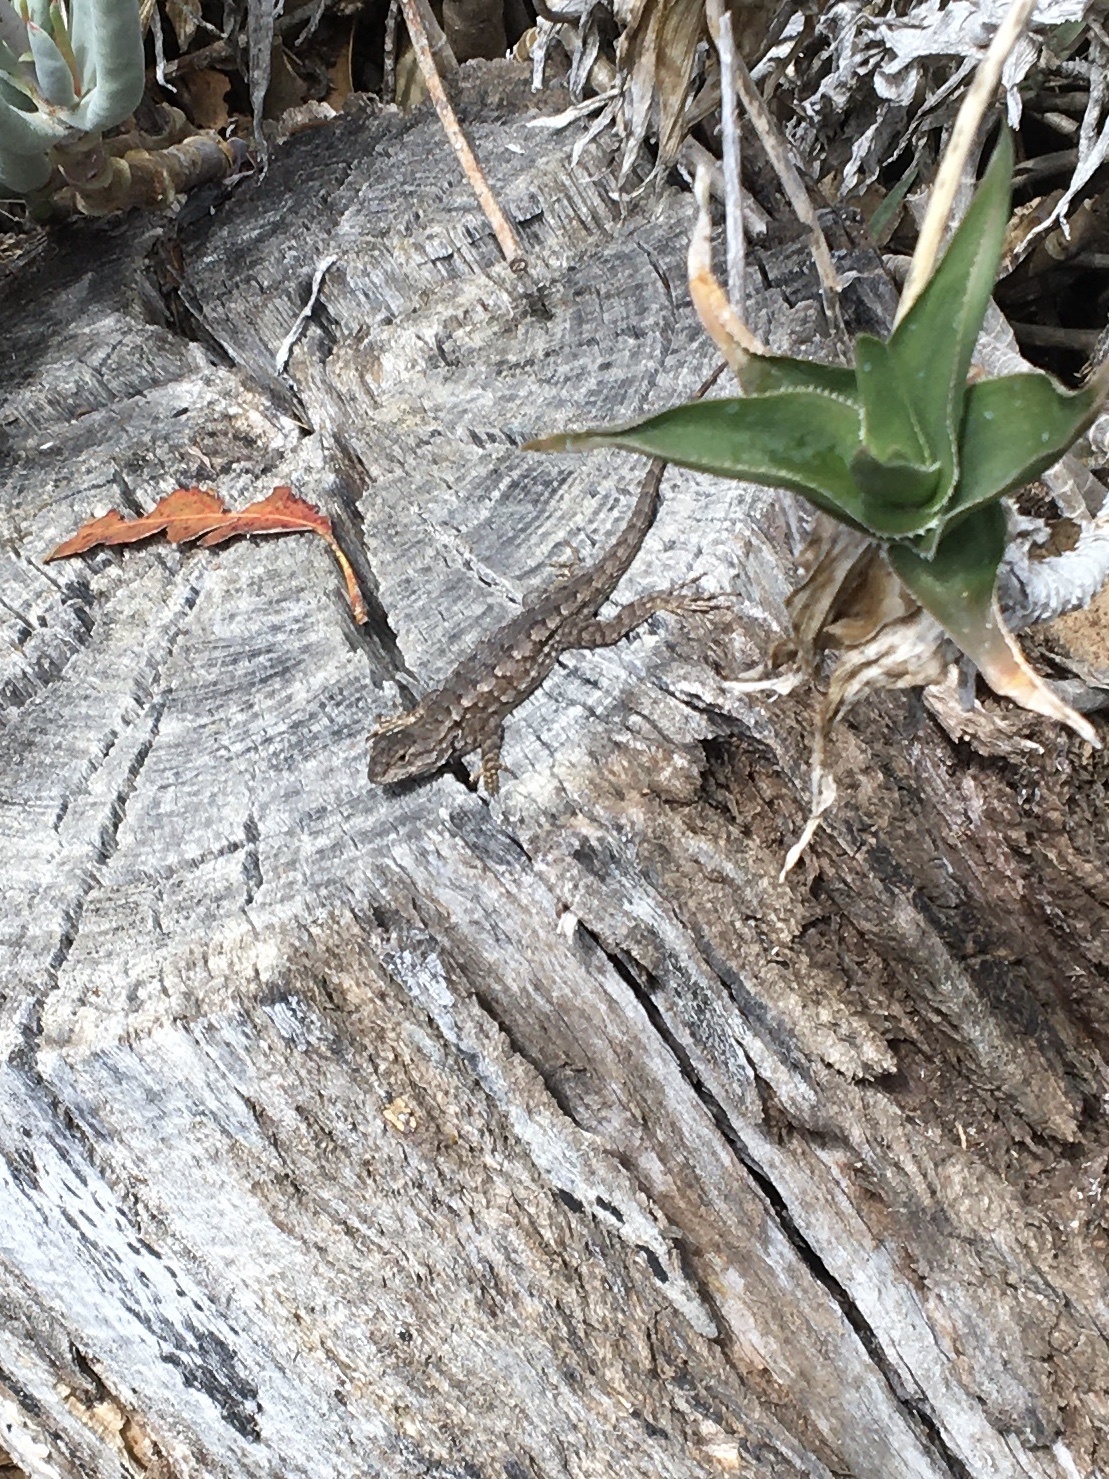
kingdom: Animalia
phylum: Chordata
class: Squamata
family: Phrynosomatidae
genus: Sceloporus
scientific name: Sceloporus occidentalis
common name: Western fence lizard
